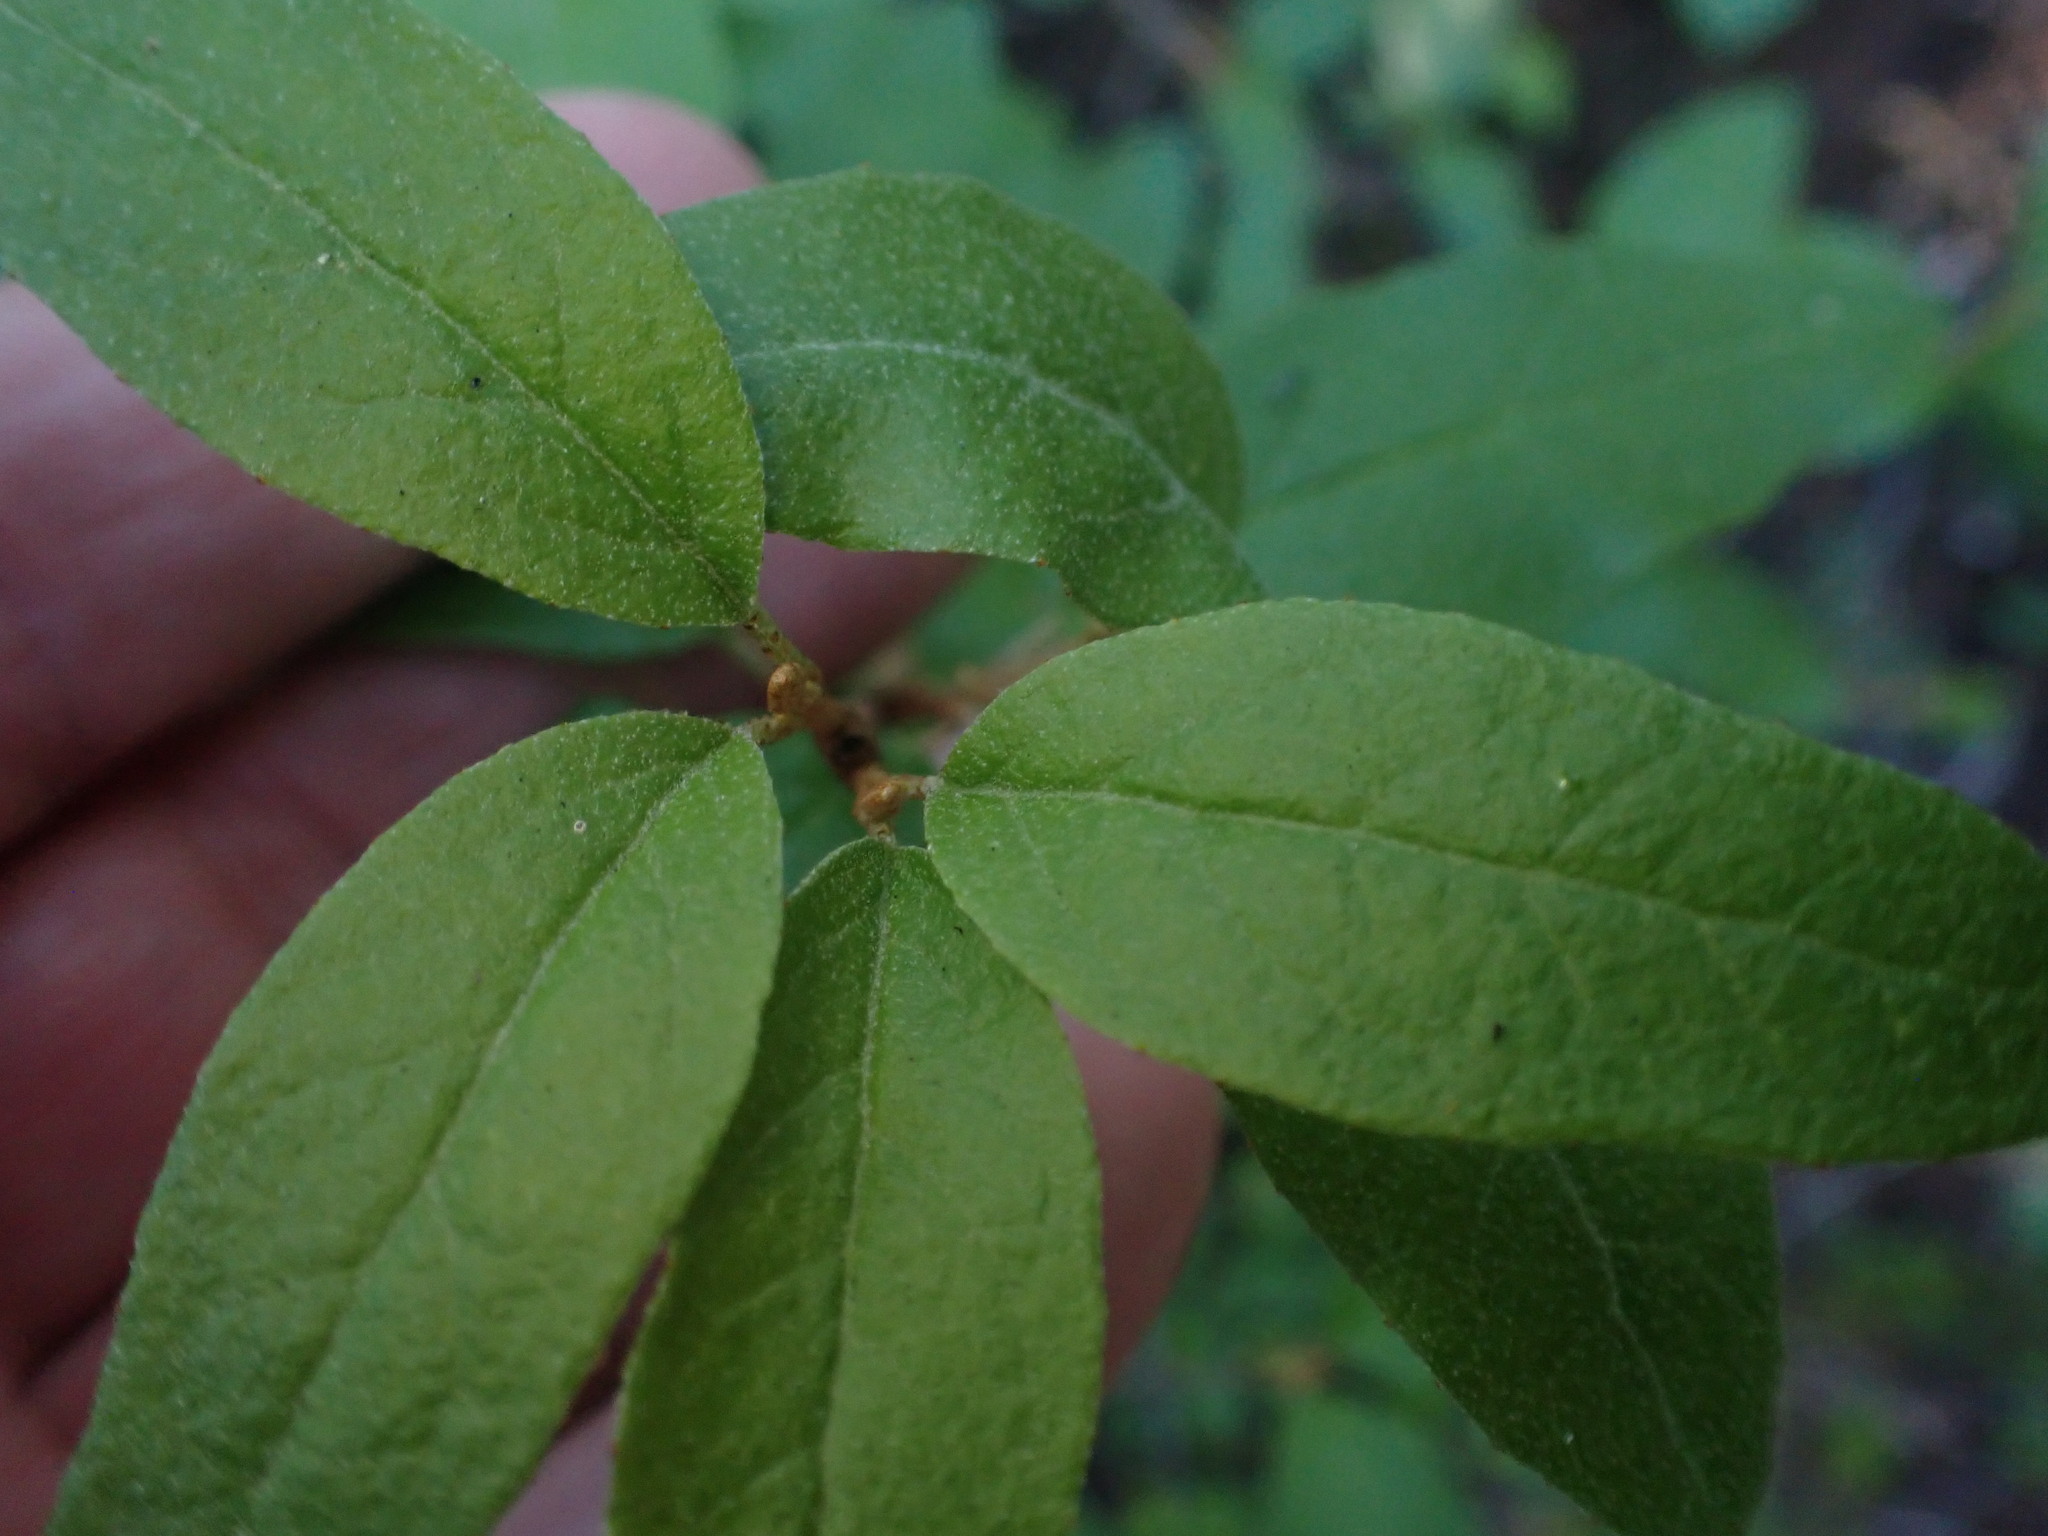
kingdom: Plantae
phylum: Tracheophyta
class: Magnoliopsida
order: Rosales
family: Elaeagnaceae
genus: Shepherdia
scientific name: Shepherdia canadensis
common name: Soapberry
